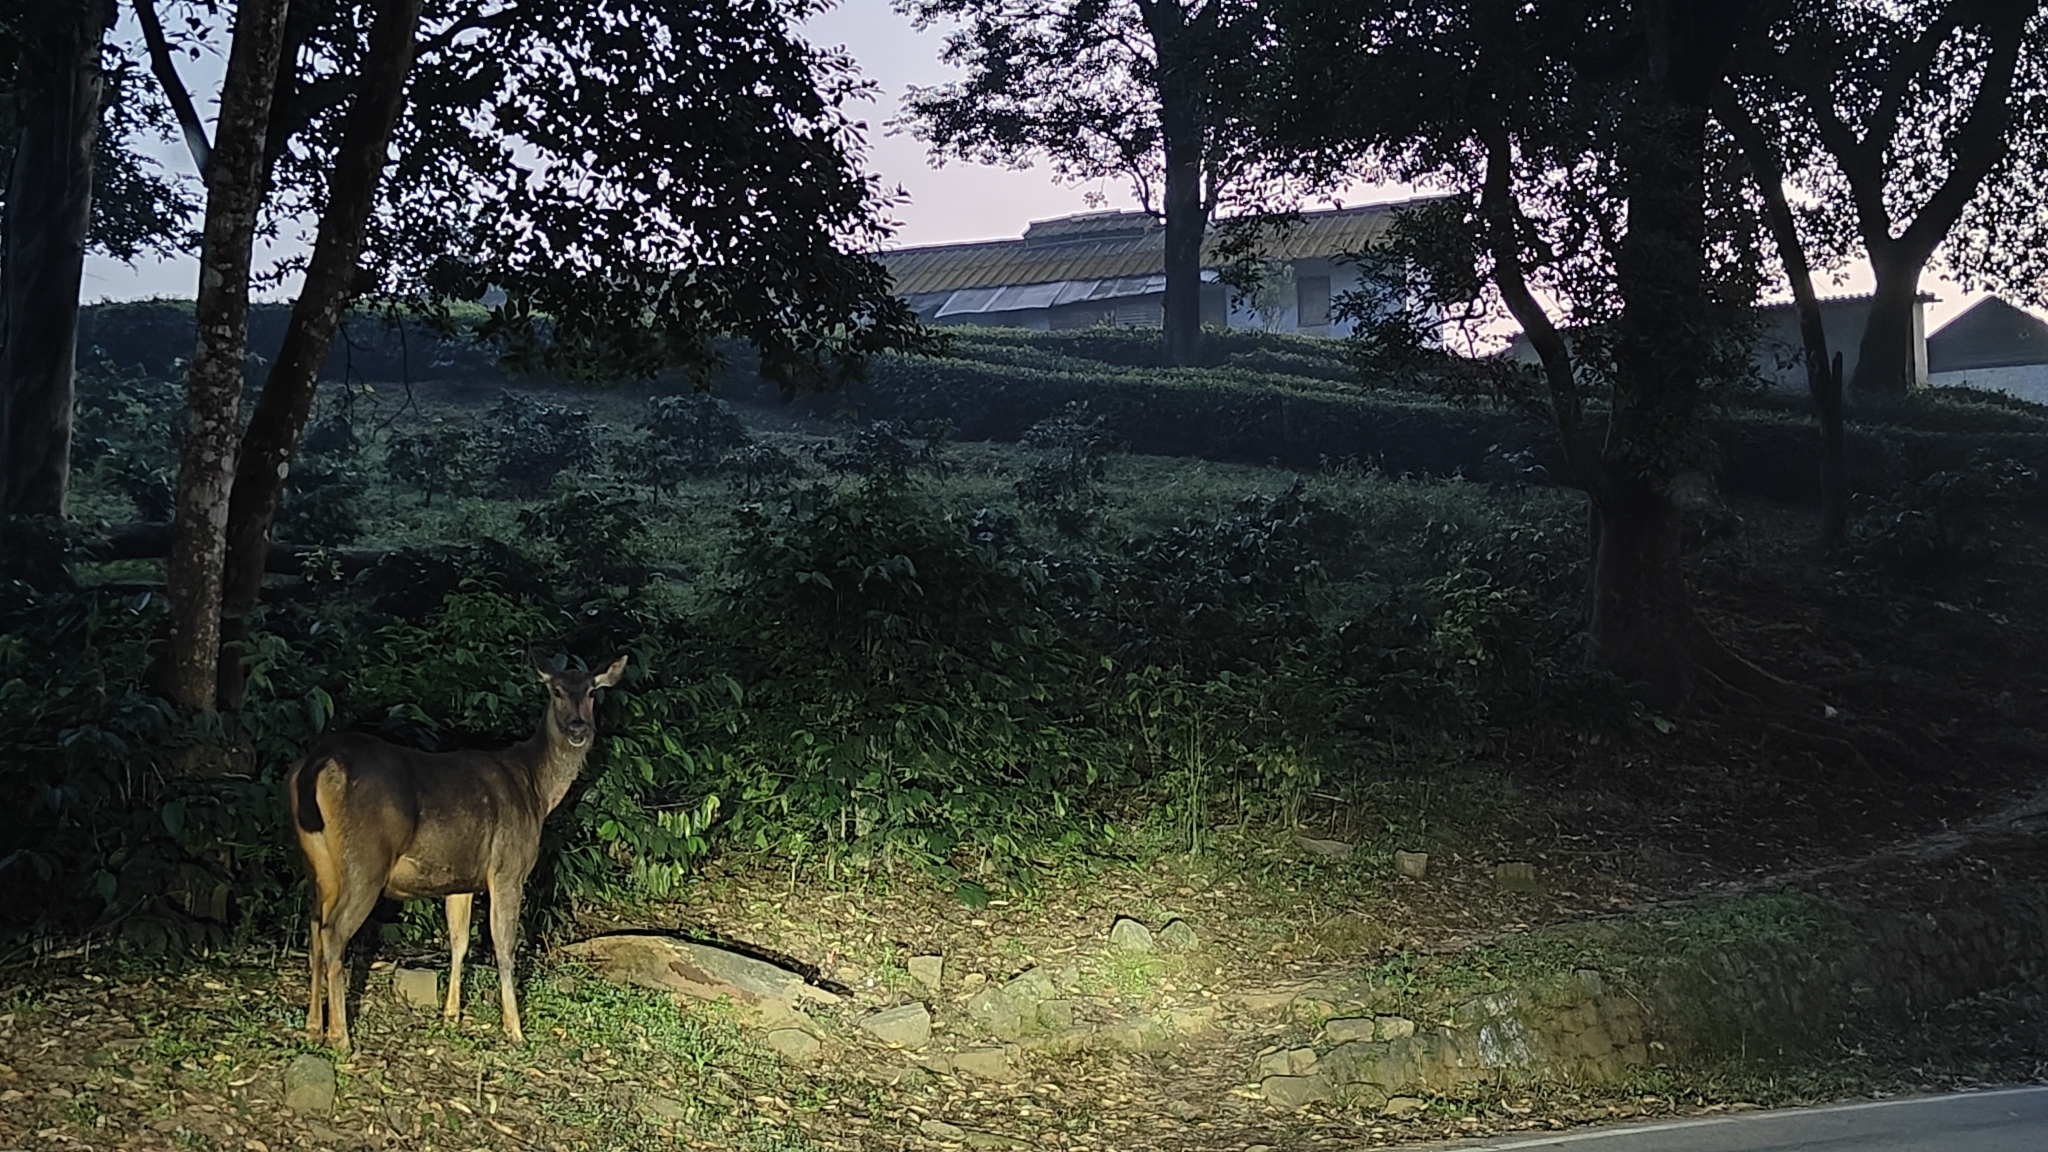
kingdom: Animalia
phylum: Chordata
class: Mammalia
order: Artiodactyla
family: Cervidae
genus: Rusa
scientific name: Rusa unicolor
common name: Sambar
